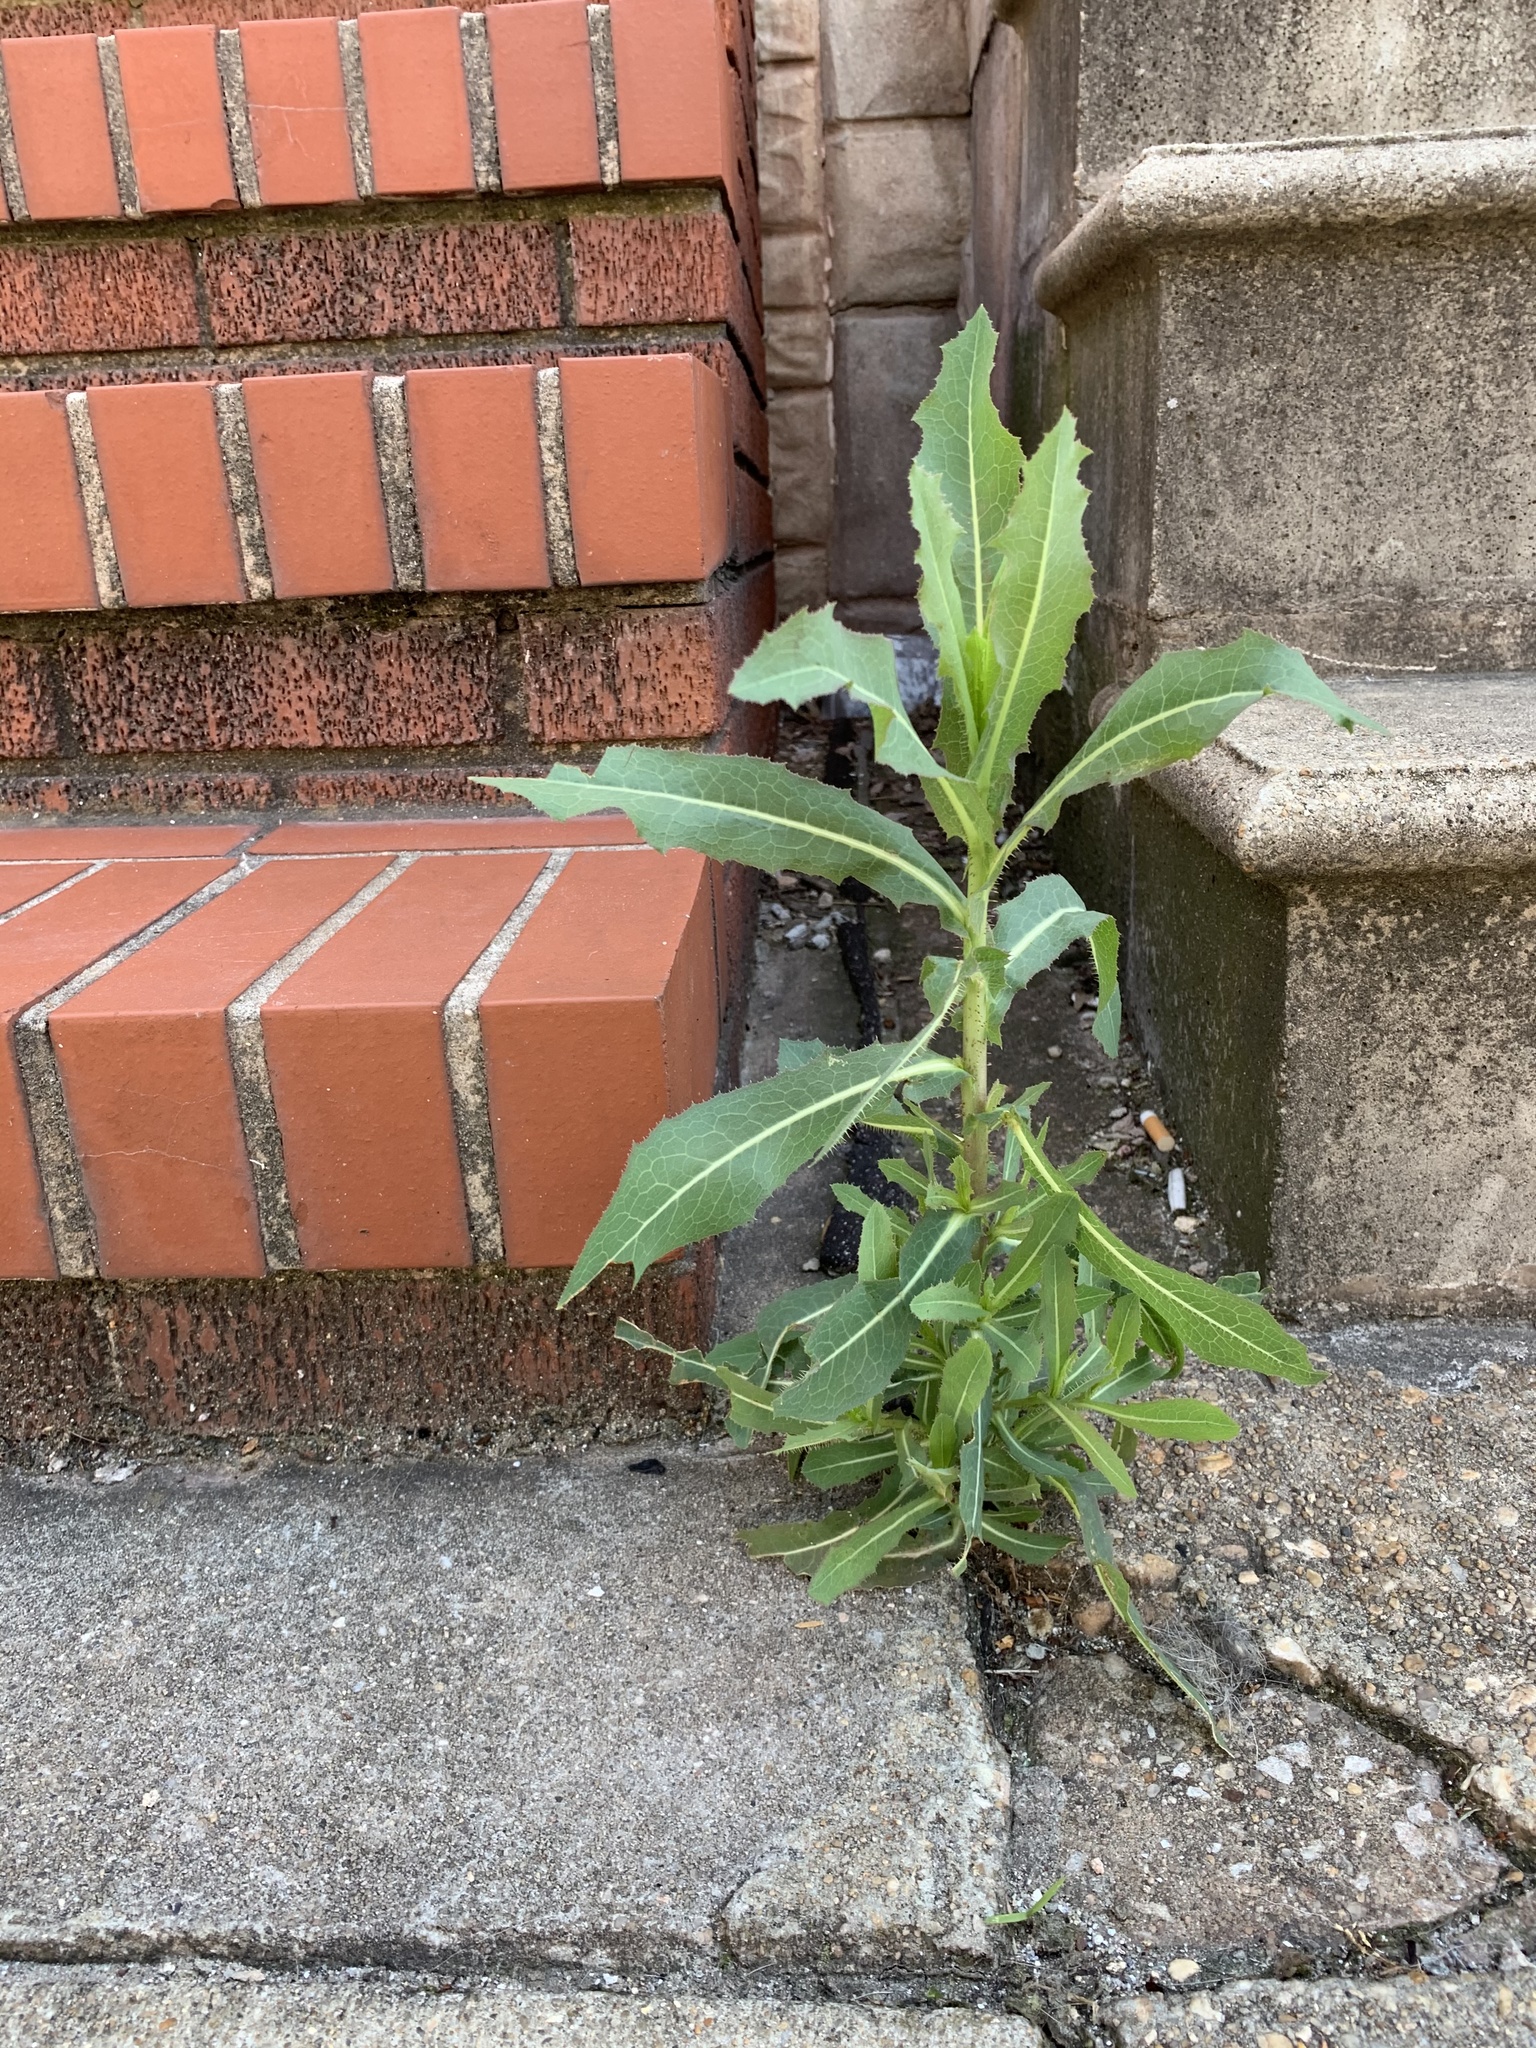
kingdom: Plantae
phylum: Tracheophyta
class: Magnoliopsida
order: Asterales
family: Asteraceae
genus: Lactuca
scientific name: Lactuca serriola
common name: Prickly lettuce
